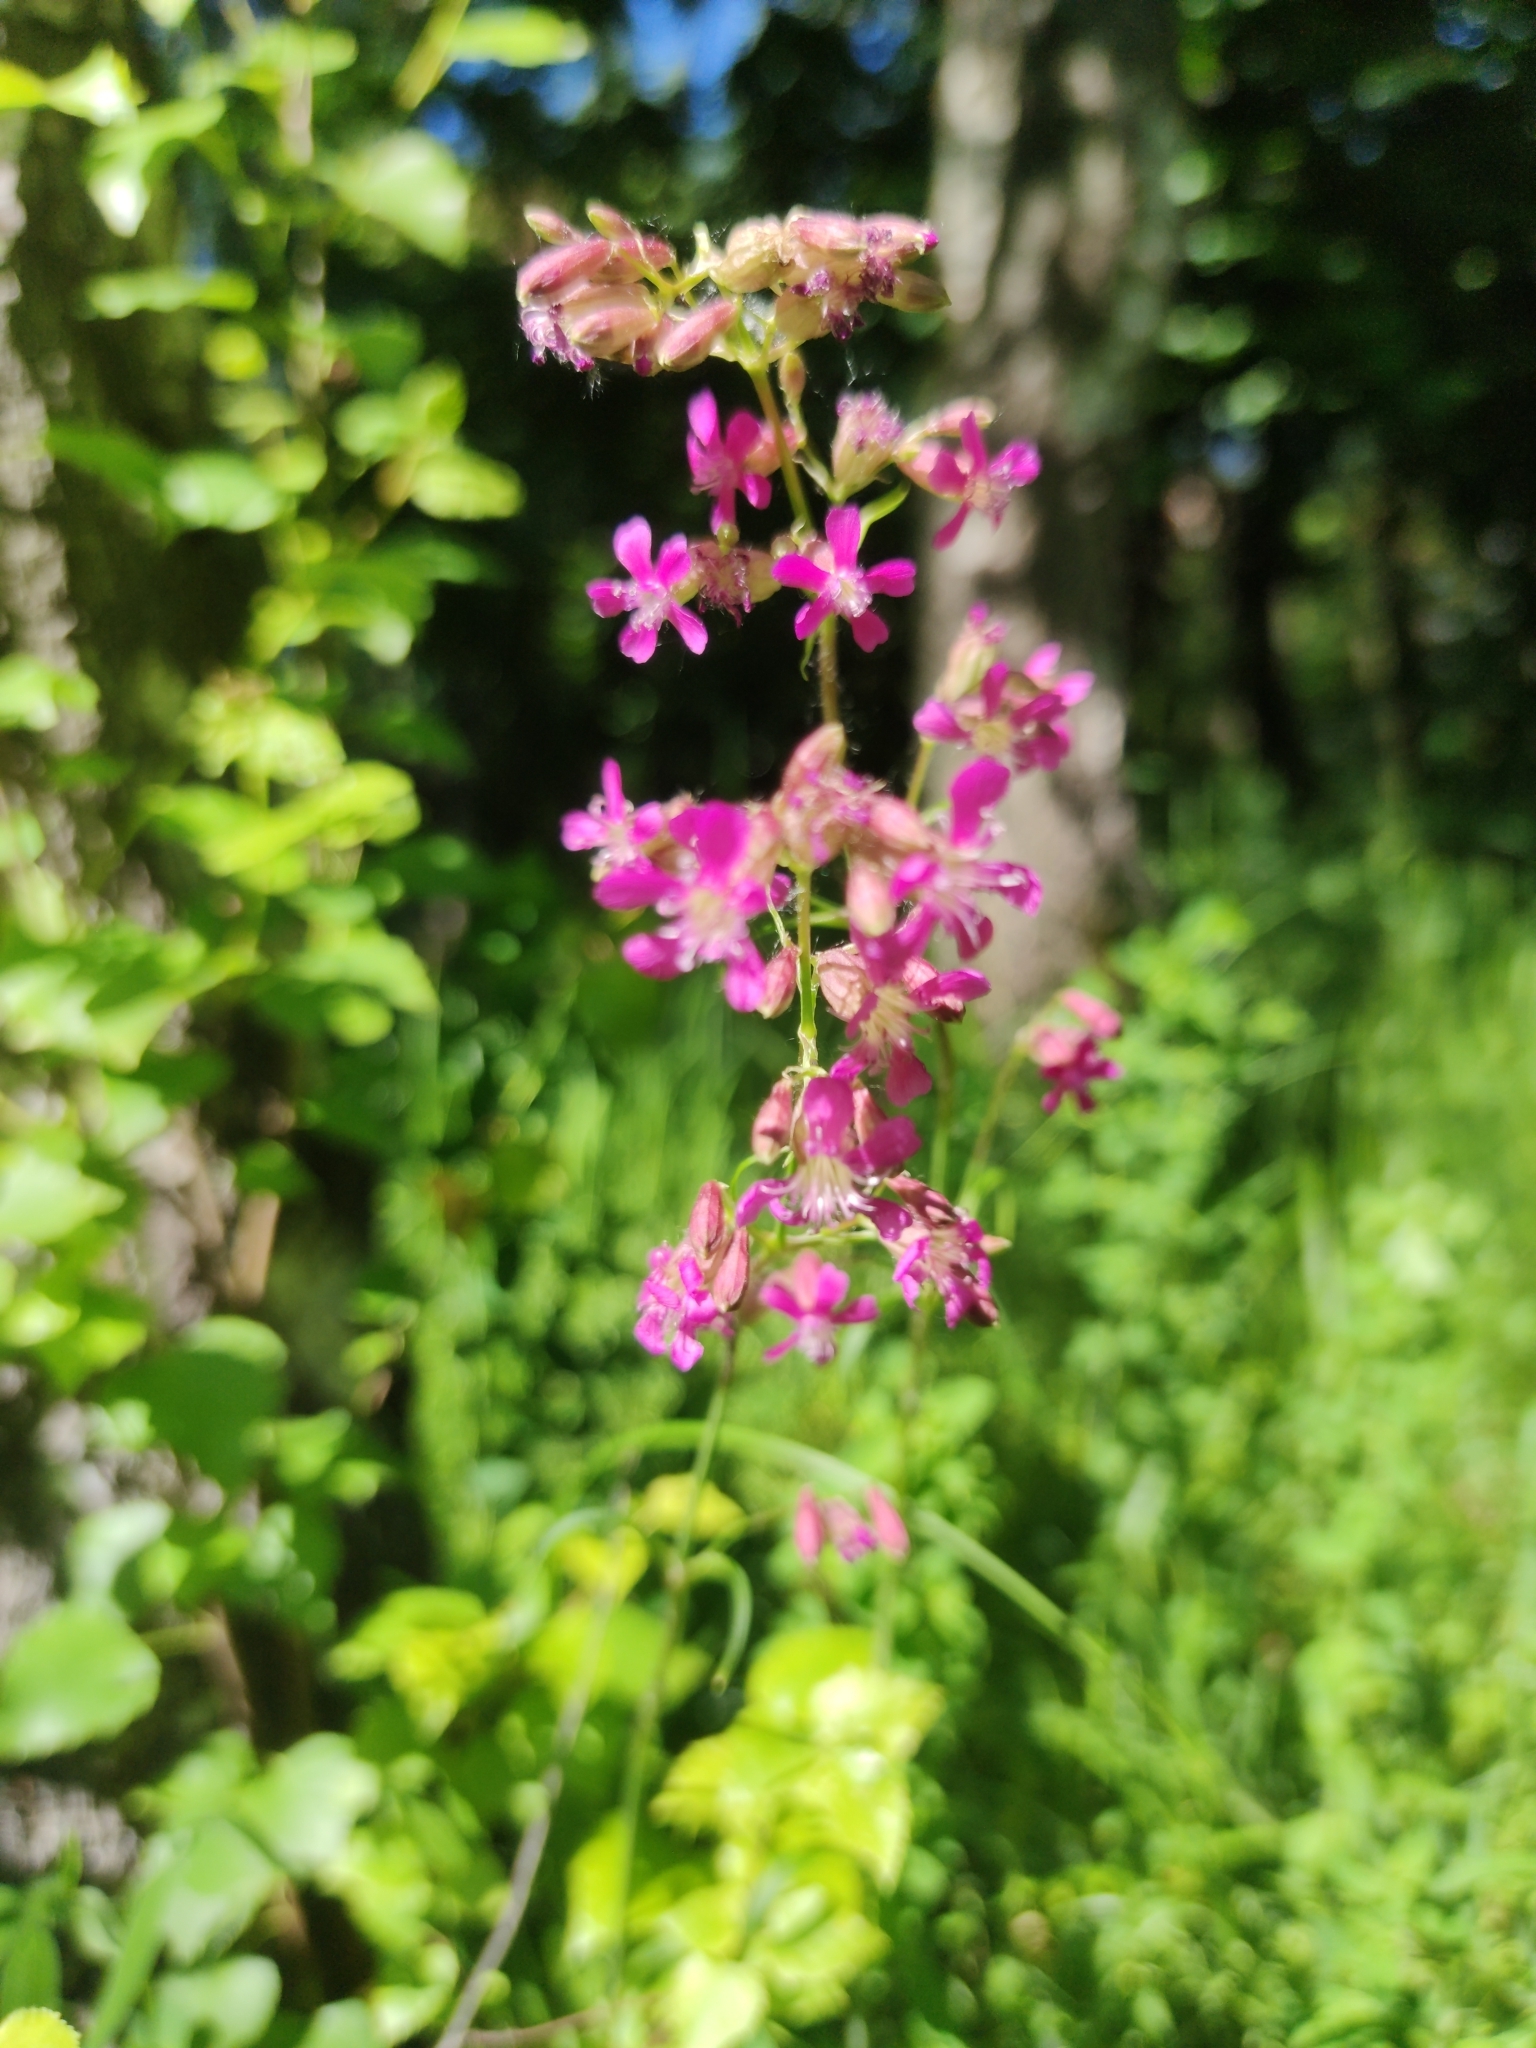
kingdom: Plantae
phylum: Tracheophyta
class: Magnoliopsida
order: Caryophyllales
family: Caryophyllaceae
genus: Viscaria
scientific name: Viscaria vulgaris
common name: Clammy campion
